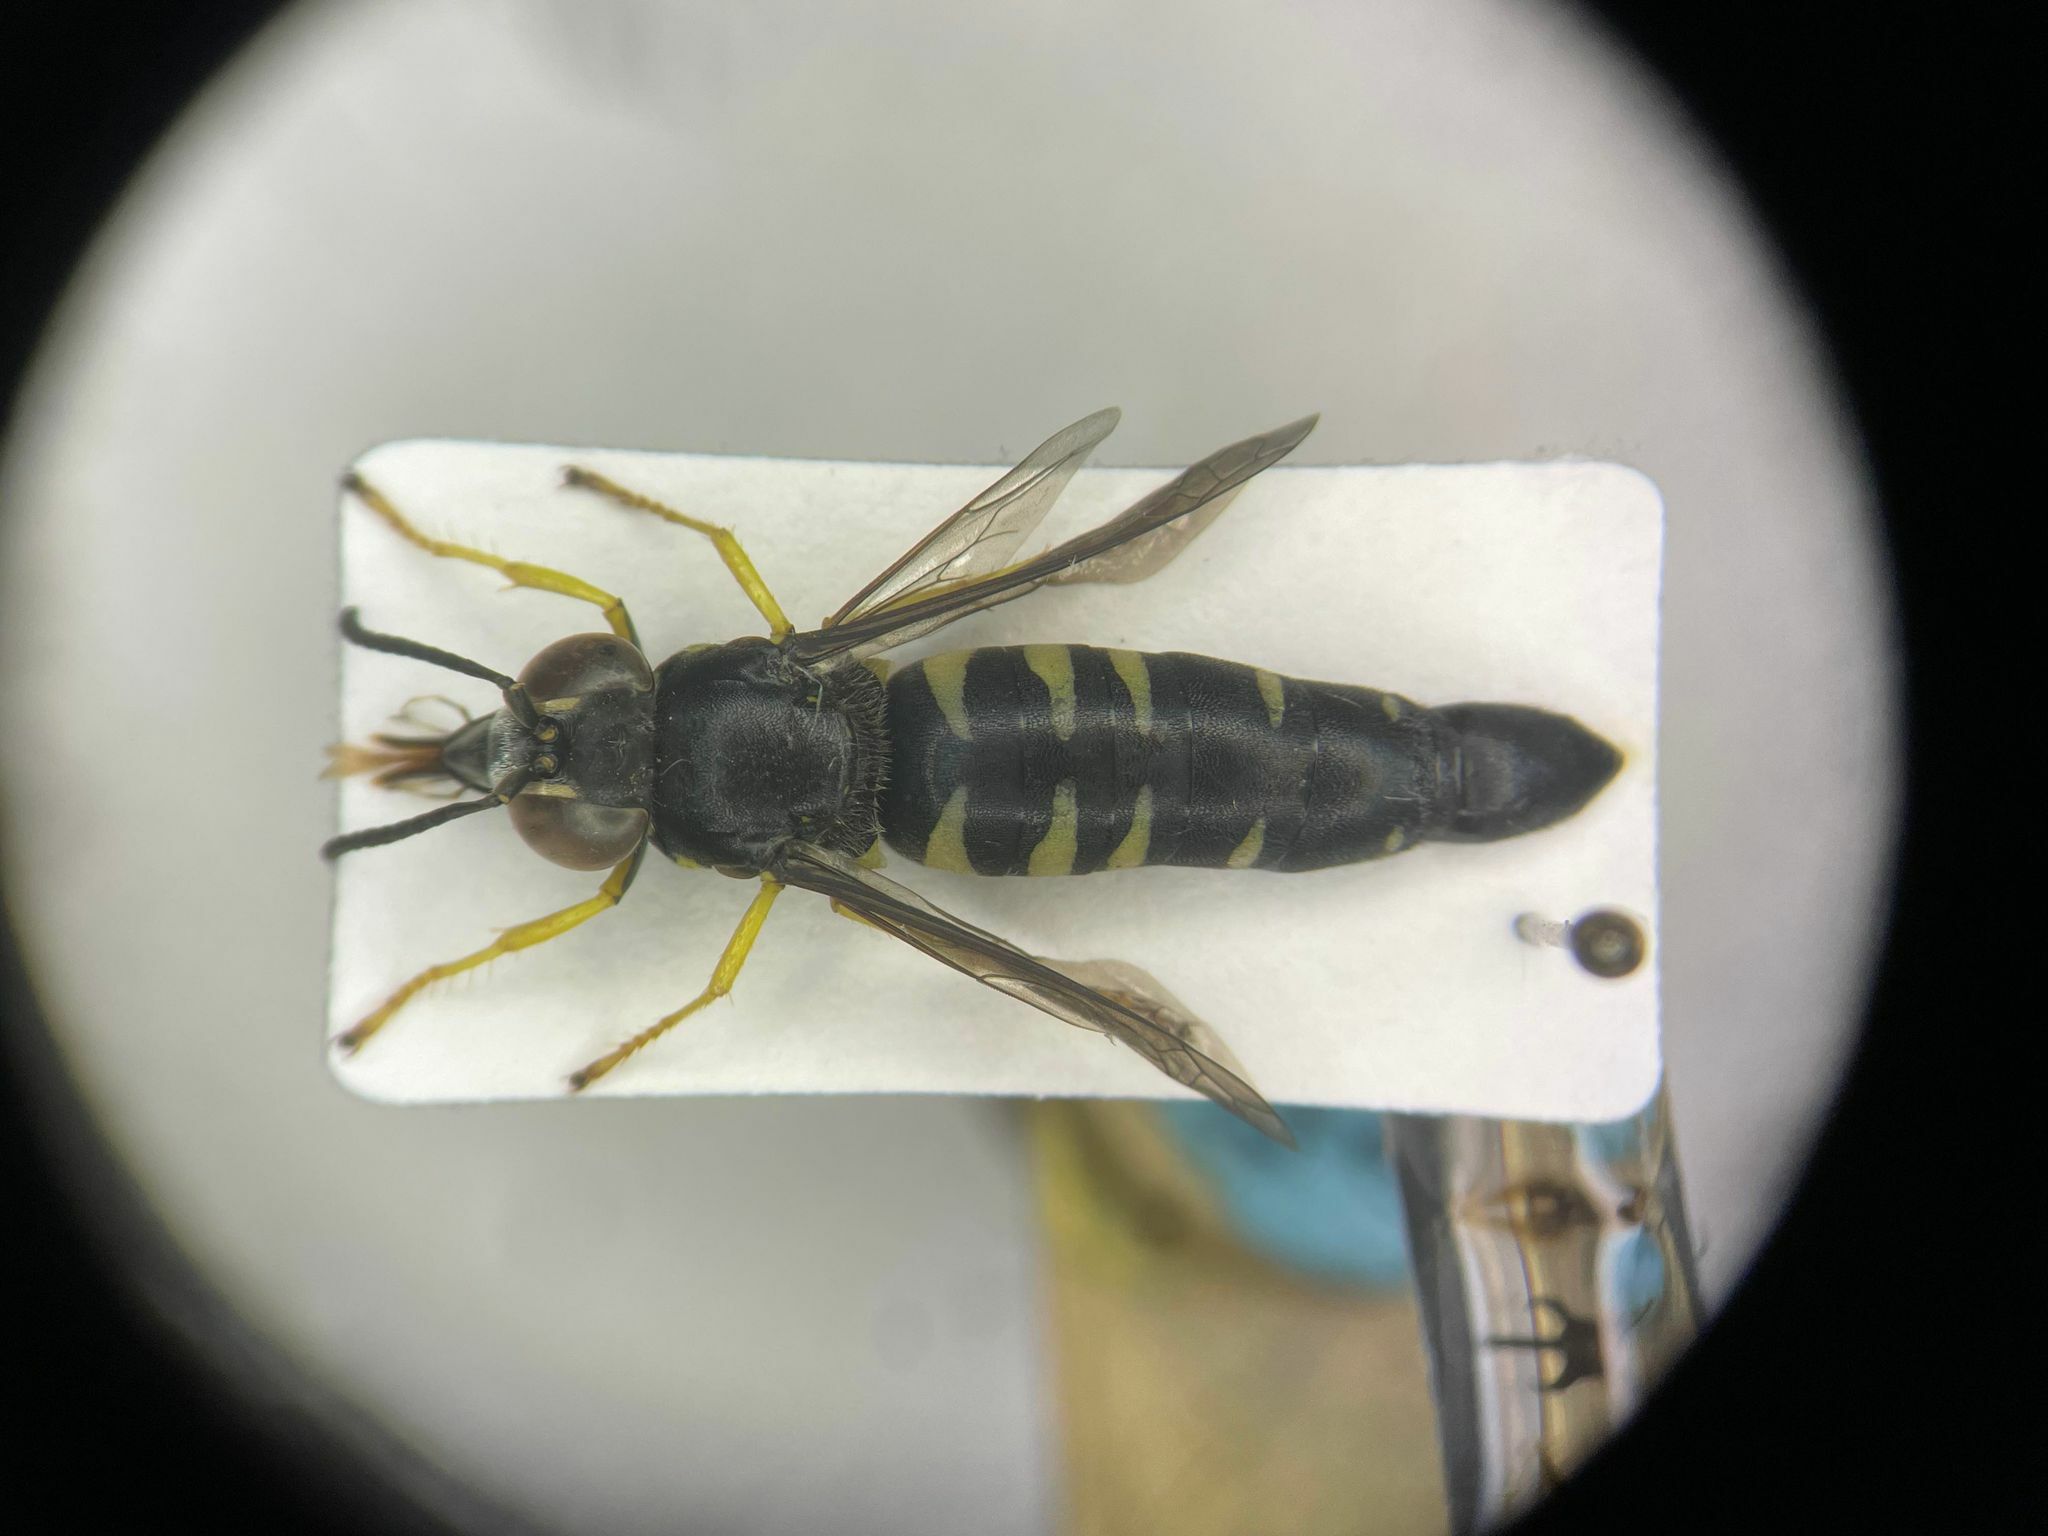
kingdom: Animalia
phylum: Arthropoda
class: Insecta
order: Hymenoptera
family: Crabronidae
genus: Bicyrtes
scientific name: Bicyrtes quadrifasciatus
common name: Four-banded stink bug hunter wasp
